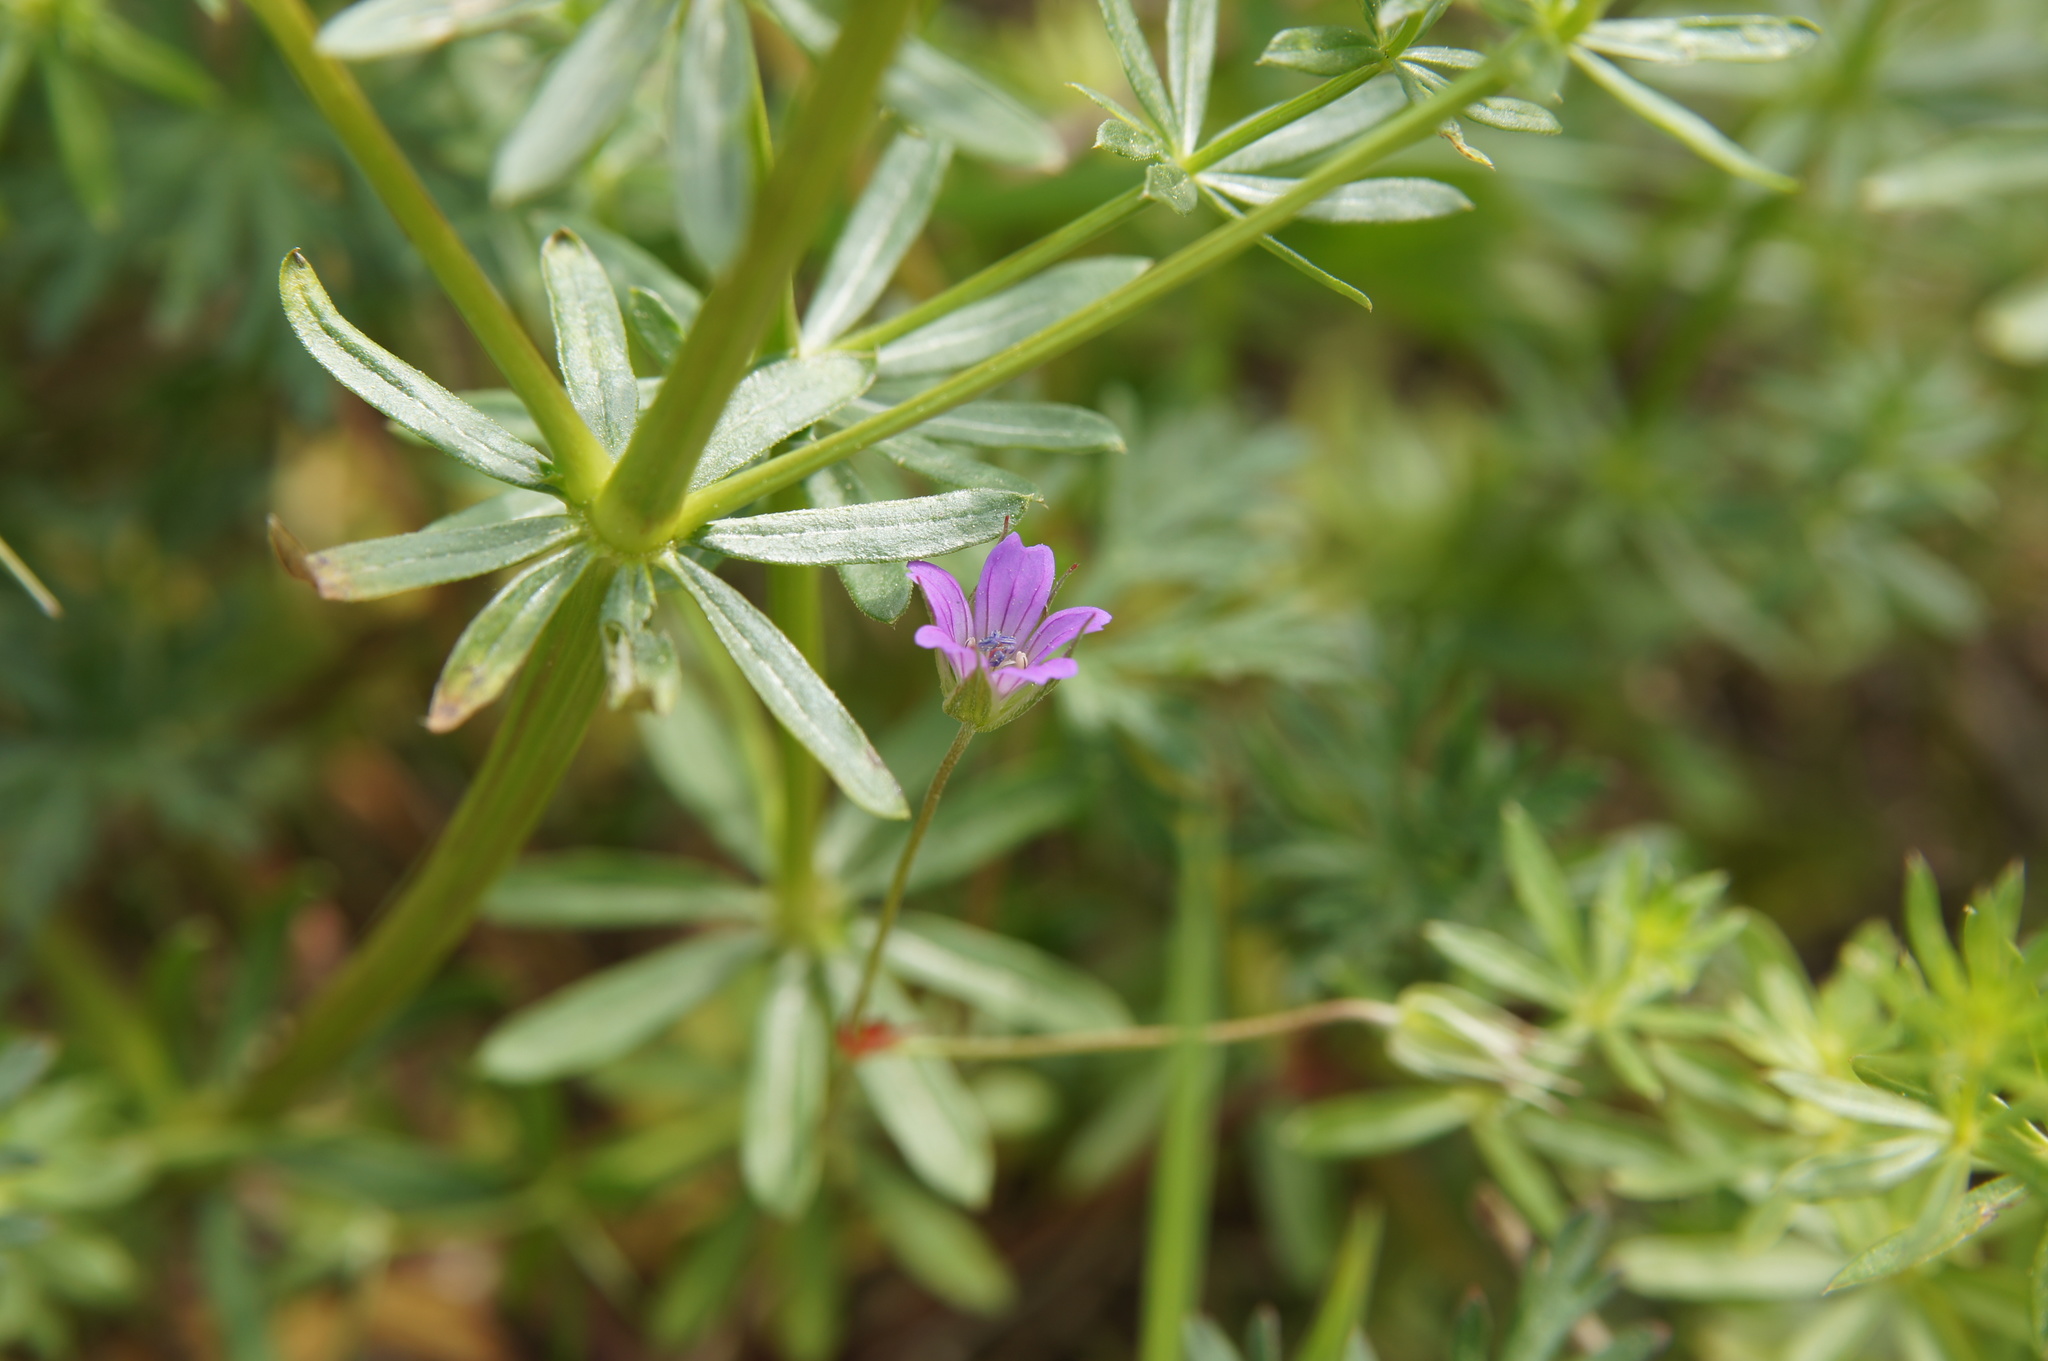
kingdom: Plantae
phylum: Tracheophyta
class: Magnoliopsida
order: Geraniales
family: Geraniaceae
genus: Geranium
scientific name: Geranium columbinum
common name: Long-stalked crane's-bill
